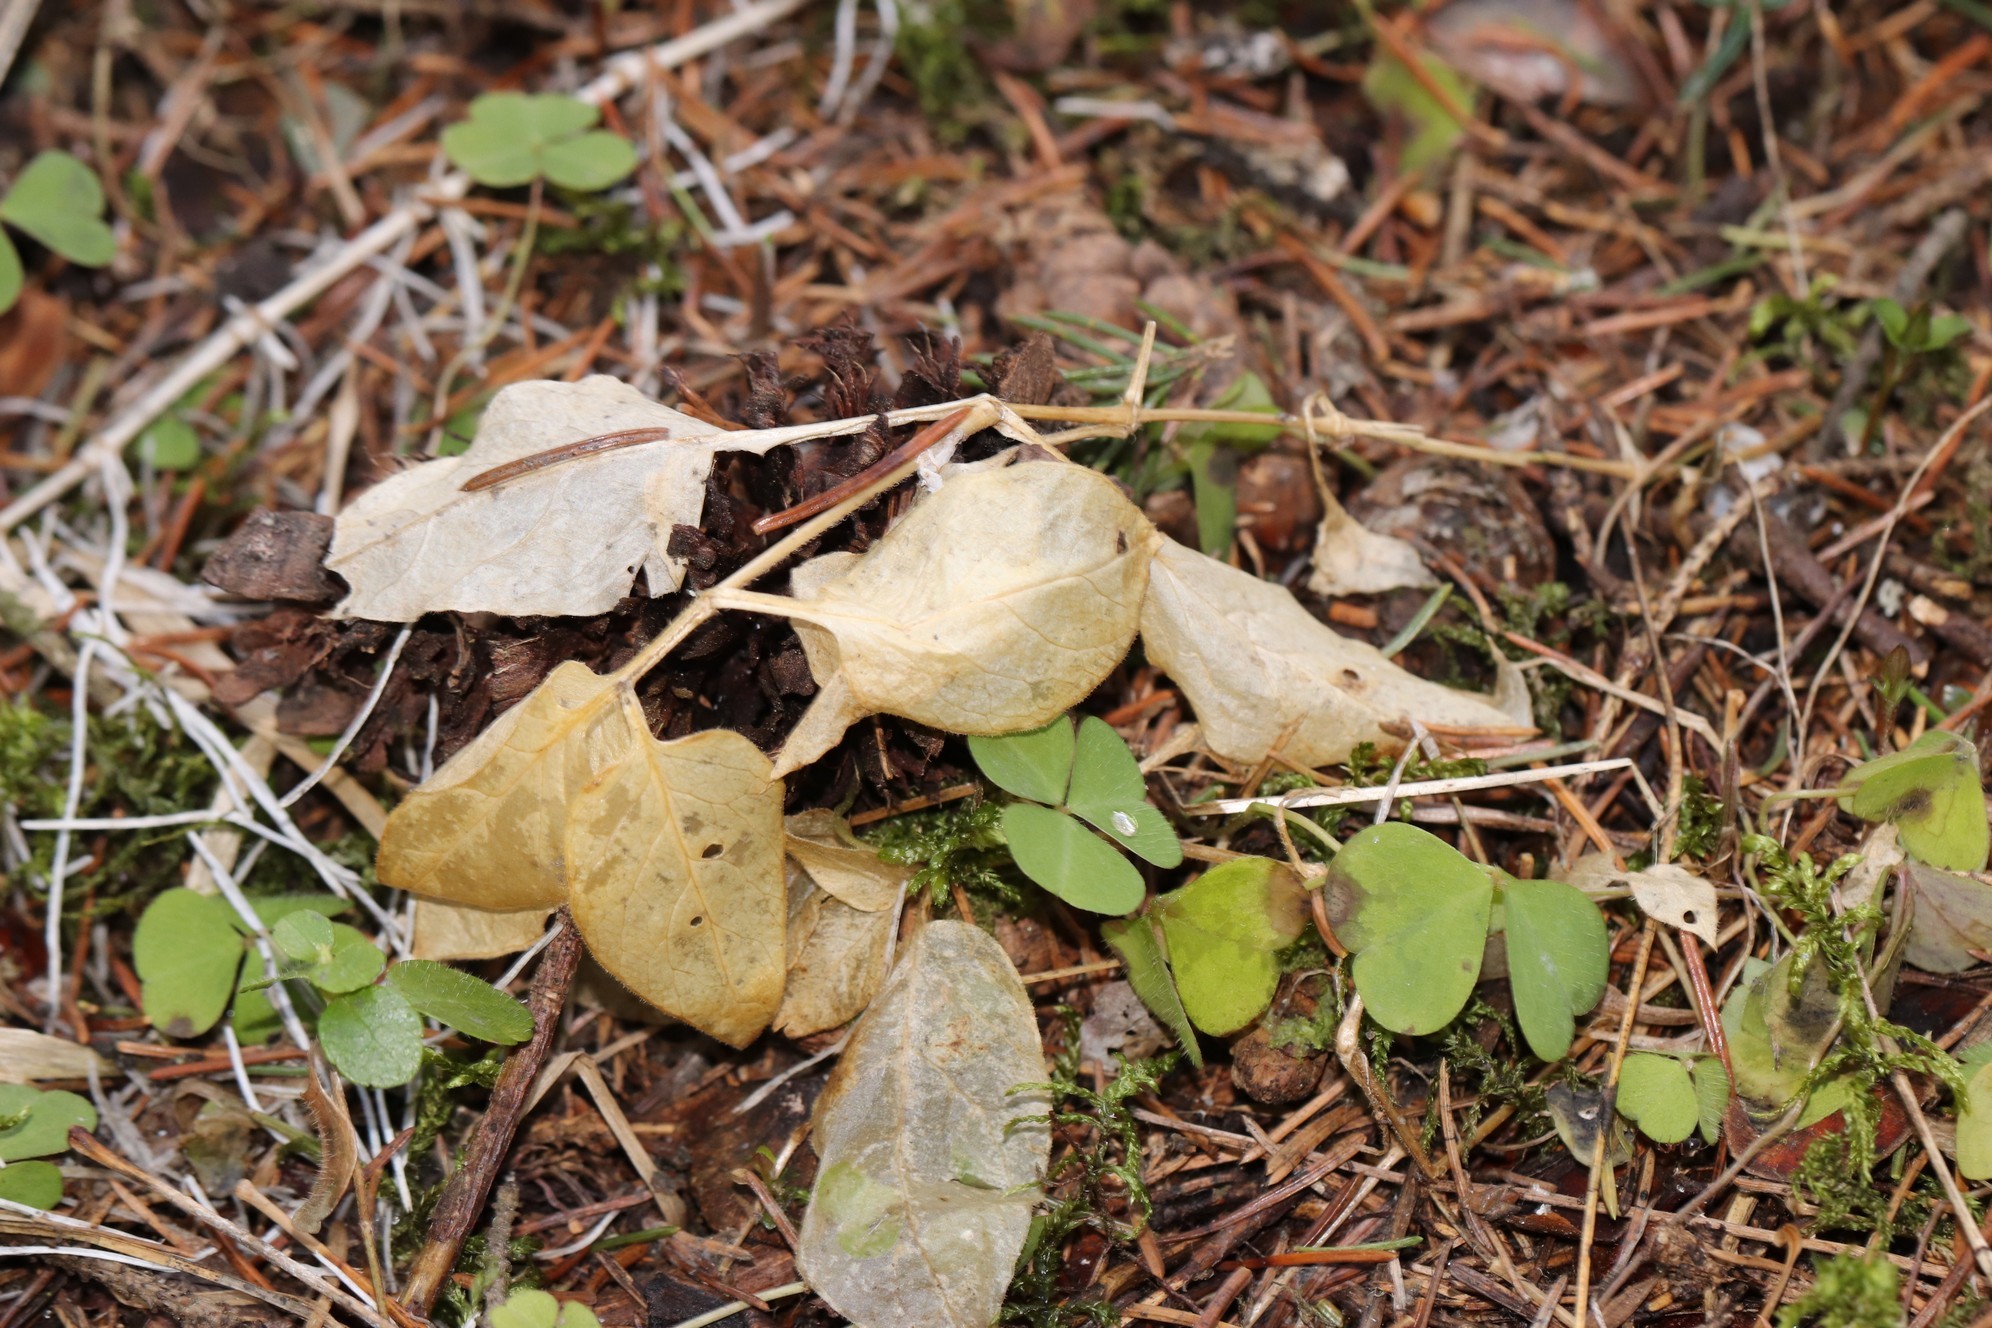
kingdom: Plantae
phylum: Tracheophyta
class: Magnoliopsida
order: Caryophyllales
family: Caryophyllaceae
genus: Stellaria
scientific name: Stellaria bungeana
